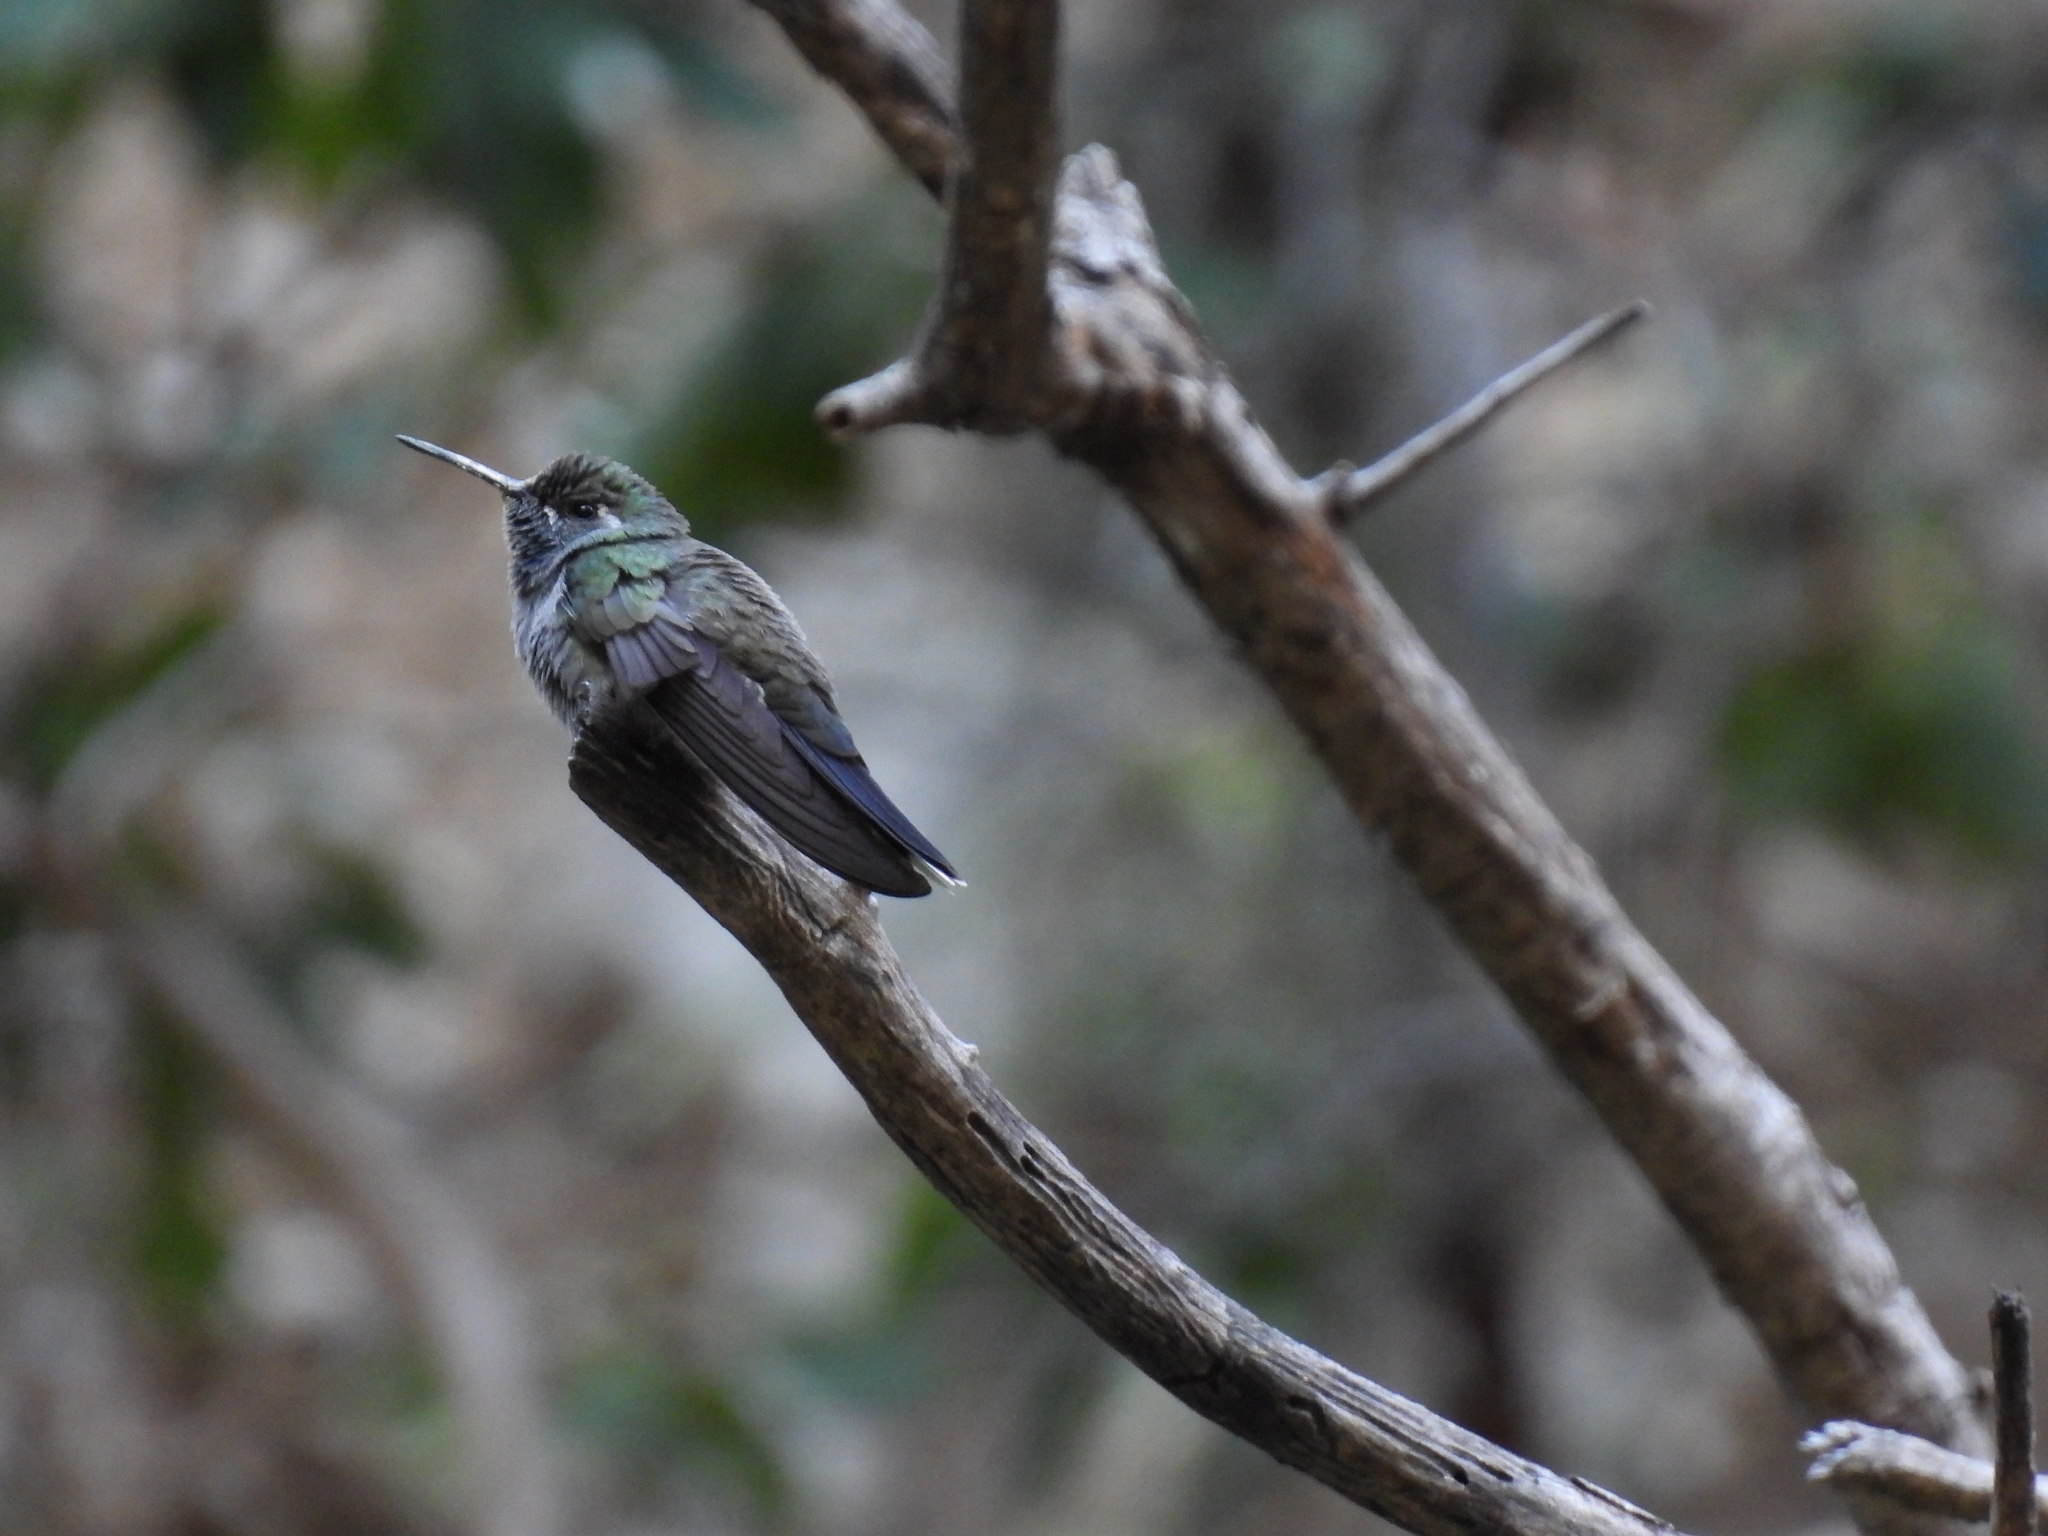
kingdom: Animalia
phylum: Chordata
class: Aves
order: Apodiformes
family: Trochilidae
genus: Lampornis
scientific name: Lampornis clemenciae
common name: Blue-throated mountaingem
